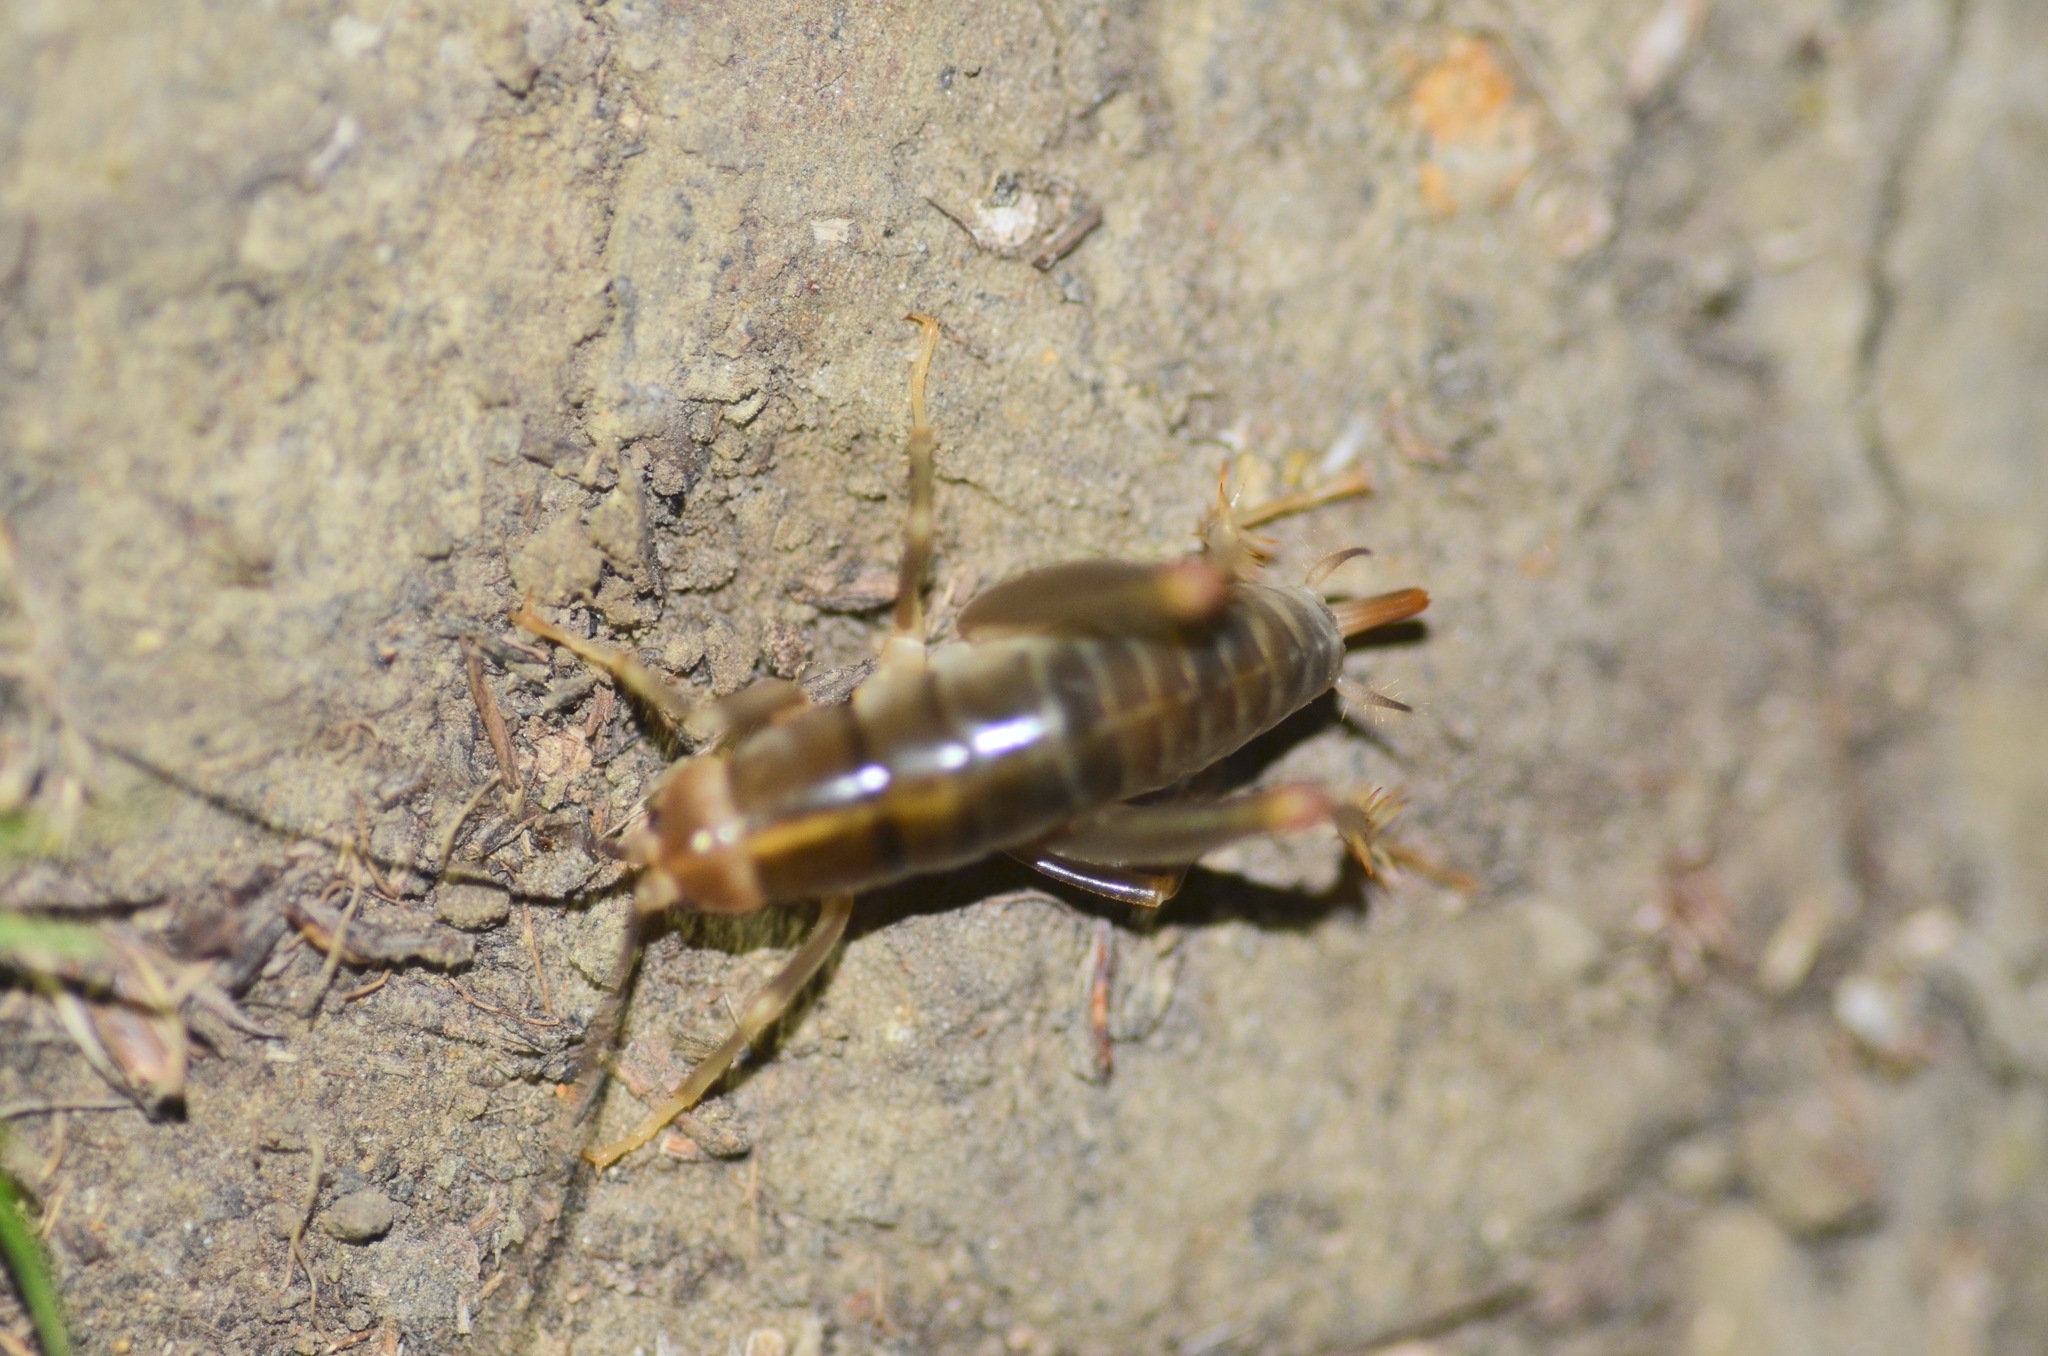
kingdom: Animalia
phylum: Arthropoda
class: Insecta
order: Orthoptera
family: Rhaphidophoridae
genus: Ceuthophilus
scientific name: Ceuthophilus californianus
